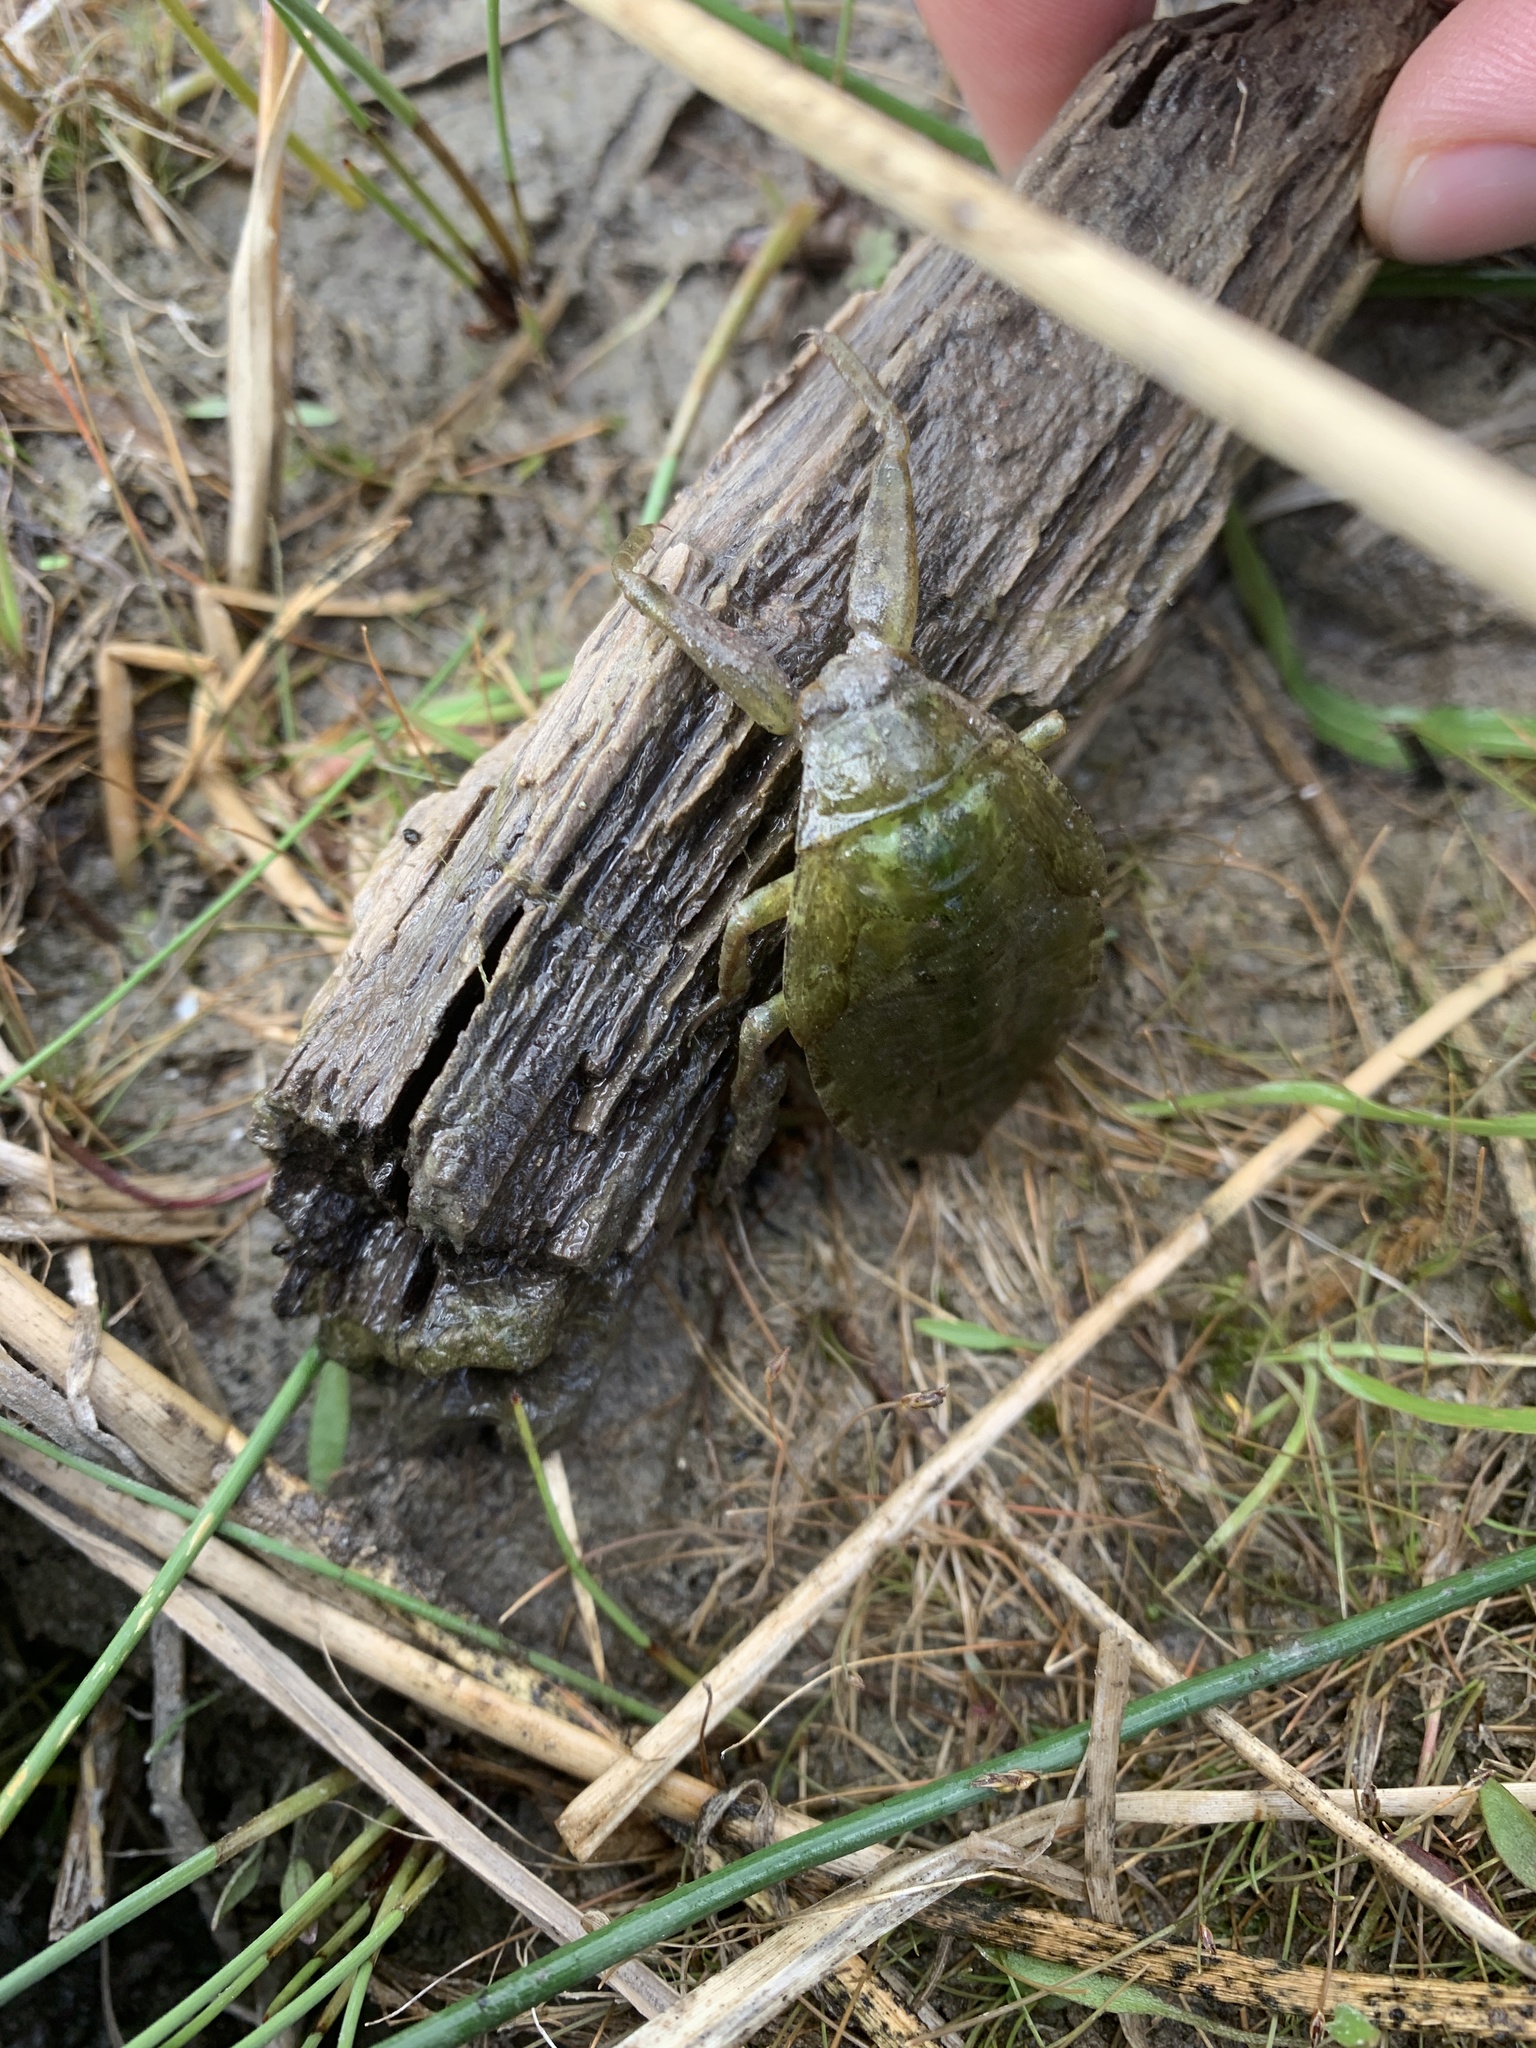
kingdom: Animalia
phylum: Arthropoda
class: Insecta
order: Hemiptera
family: Belostomatidae
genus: Lethocerus
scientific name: Lethocerus americanus
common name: Giant water bug
